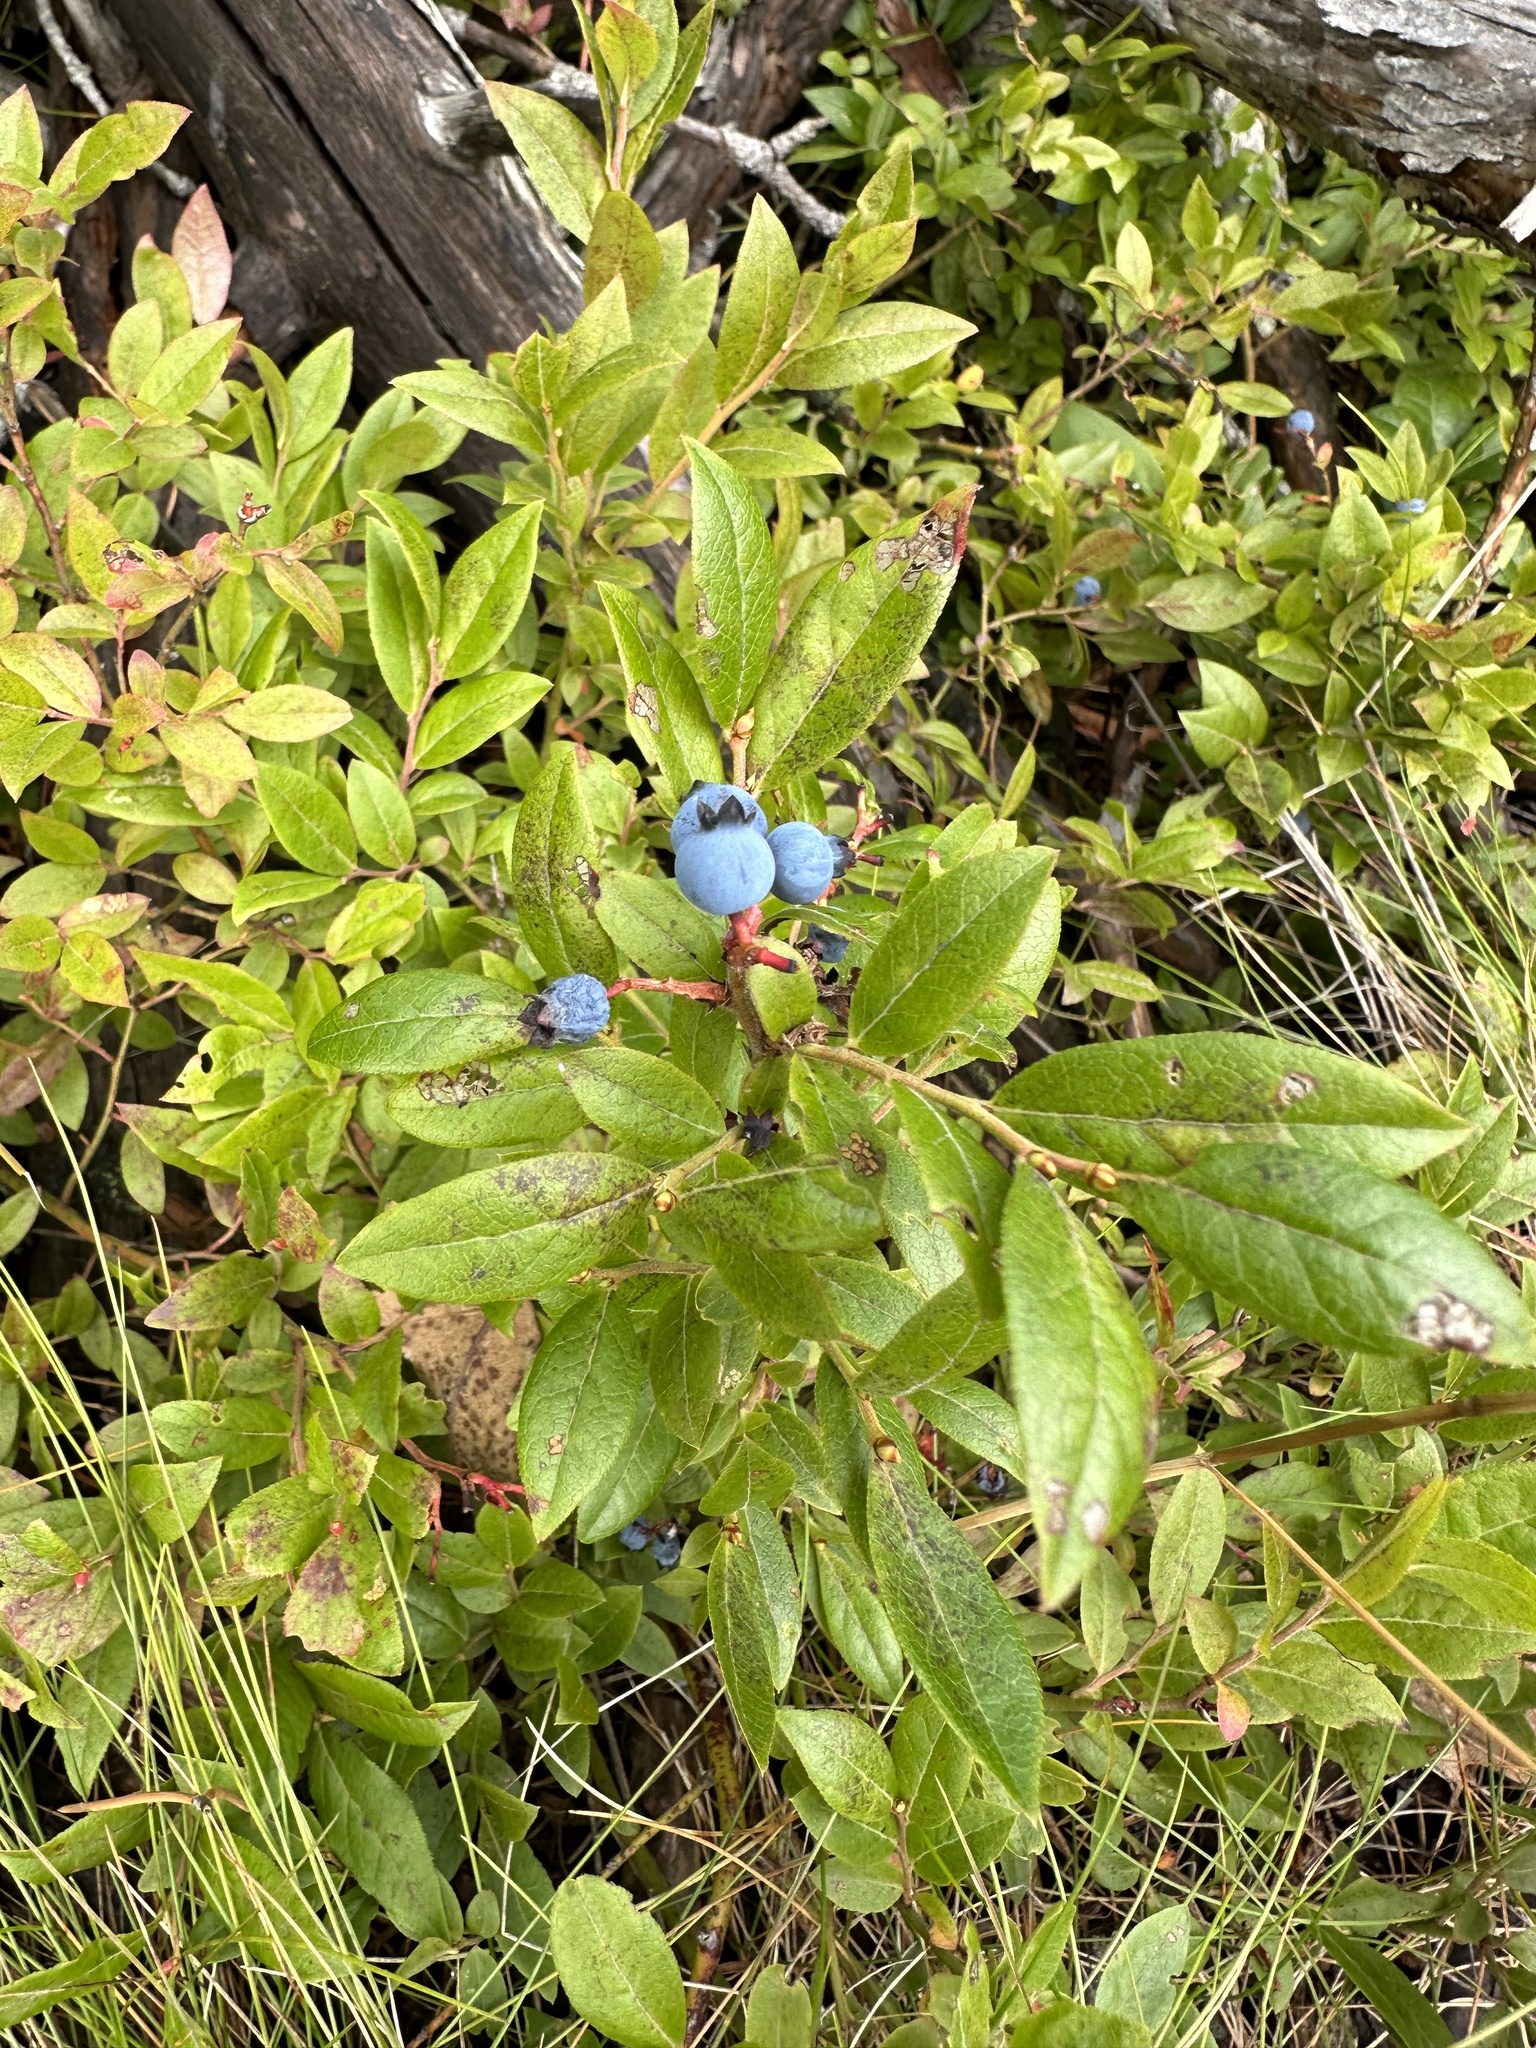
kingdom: Plantae
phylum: Tracheophyta
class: Magnoliopsida
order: Ericales
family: Ericaceae
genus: Vaccinium
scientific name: Vaccinium angustifolium
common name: Early lowbush blueberry
